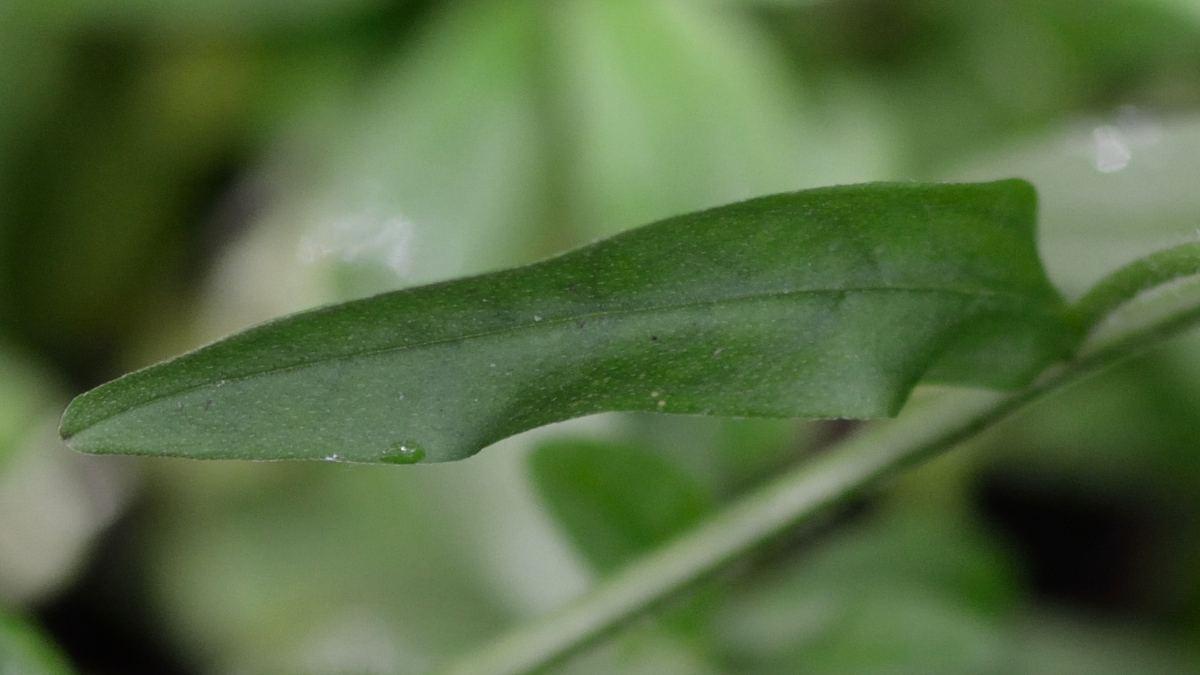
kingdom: Plantae
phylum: Tracheophyta
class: Magnoliopsida
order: Boraginales
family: Boraginaceae
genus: Myosotis
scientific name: Myosotis scorpioides
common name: Water forget-me-not
